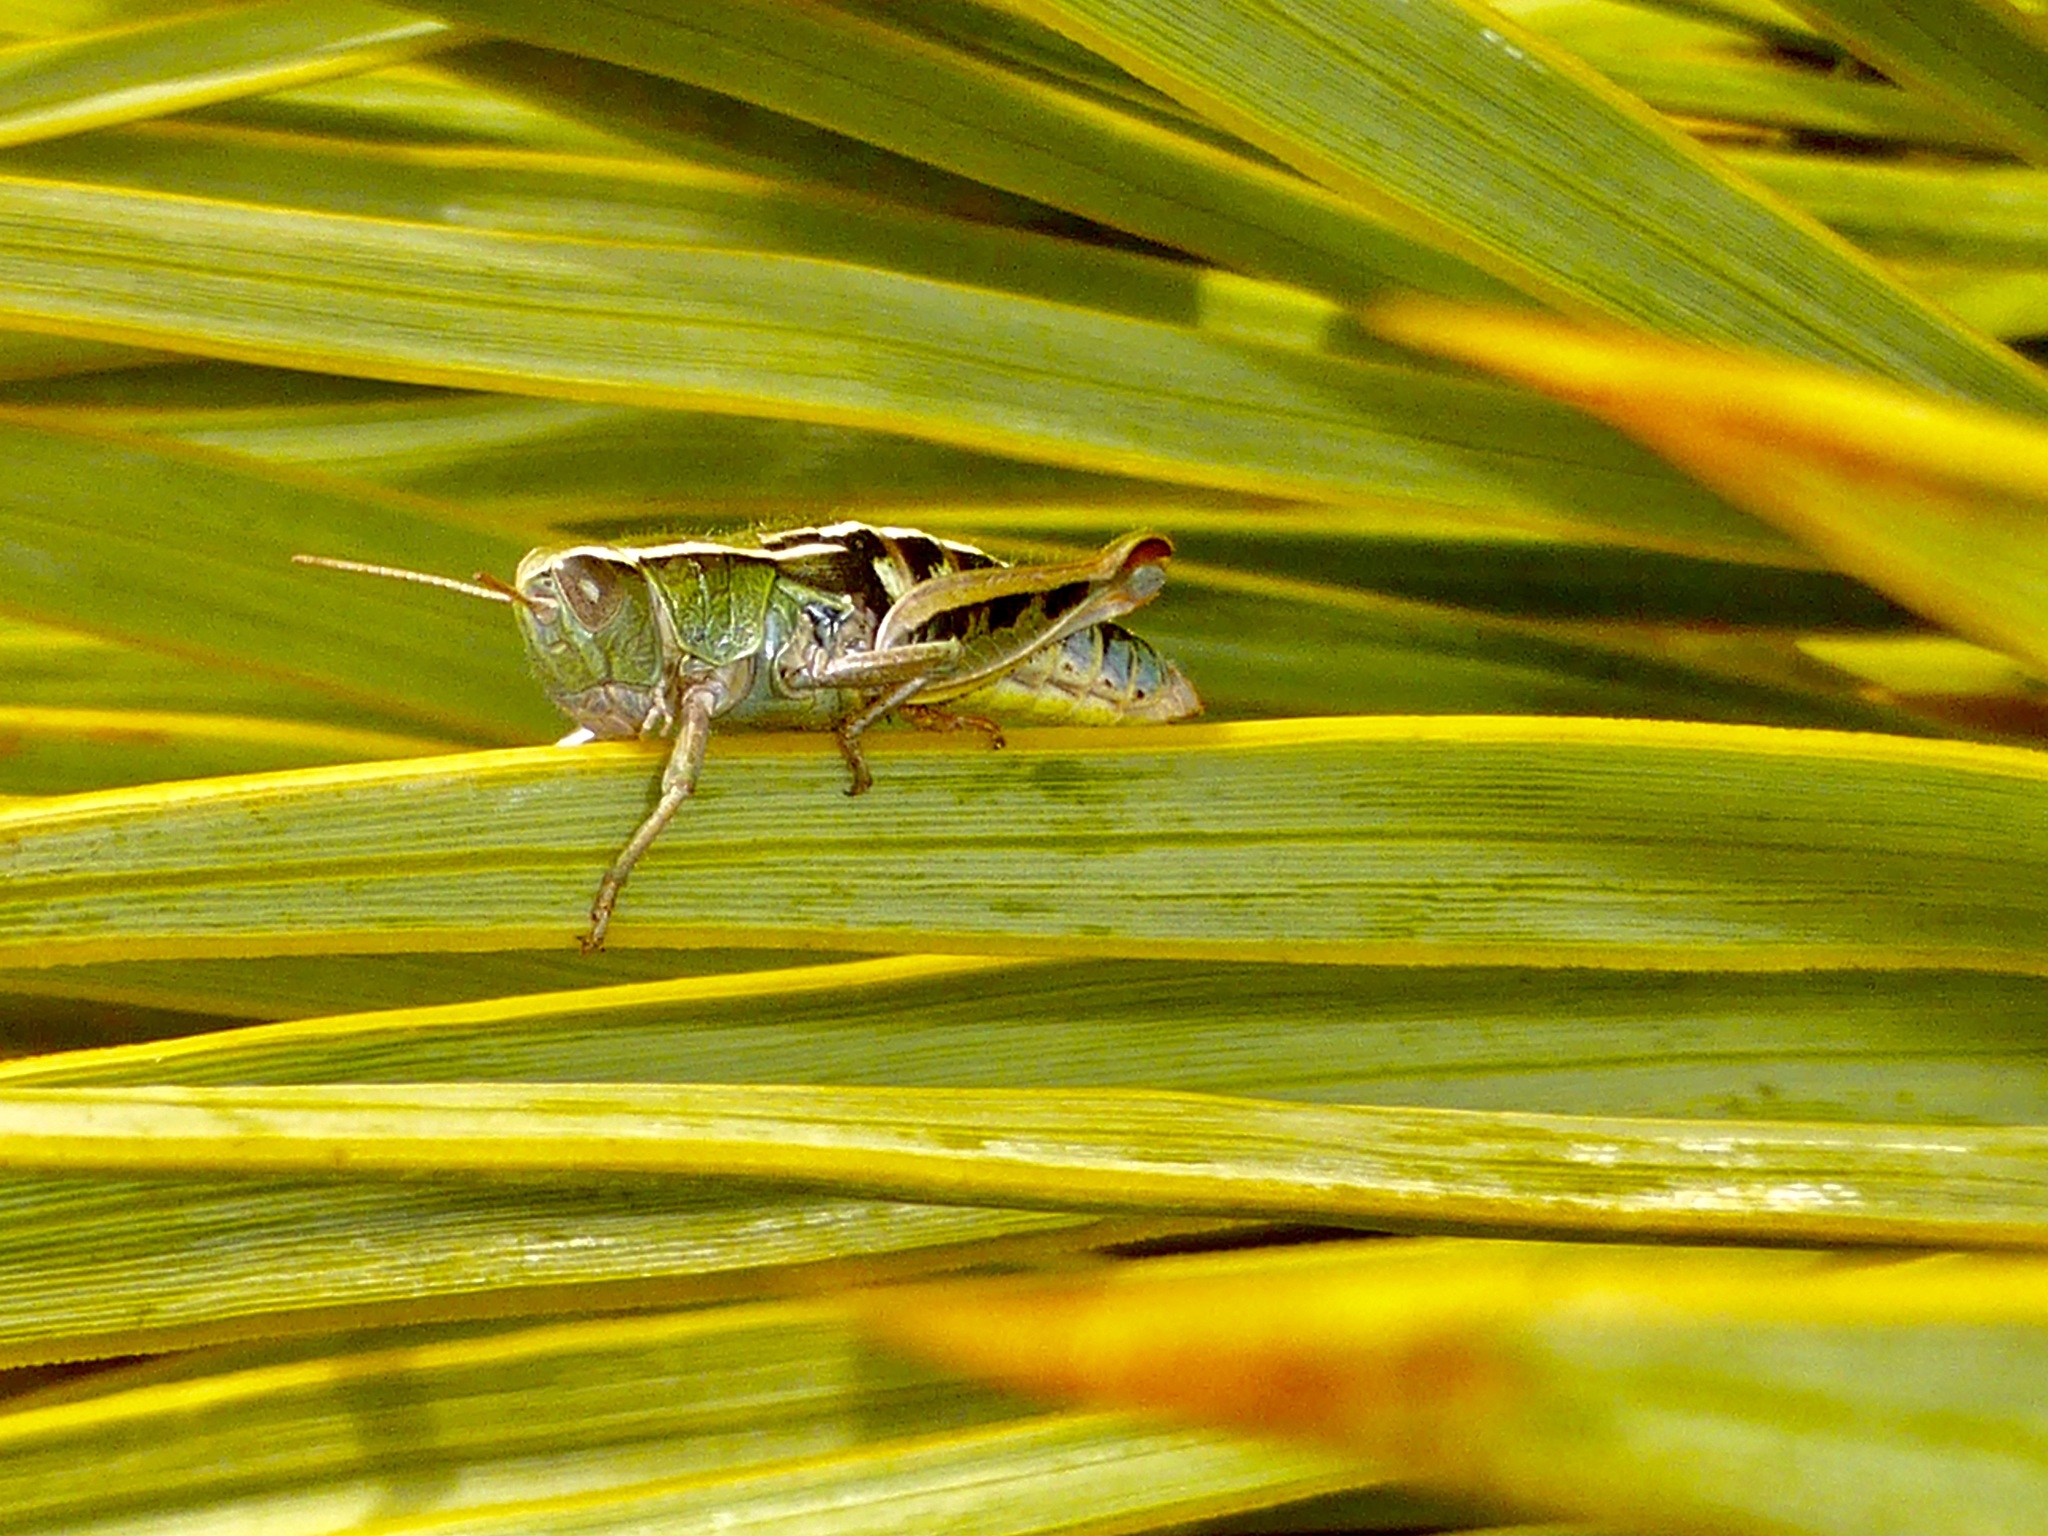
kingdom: Animalia
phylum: Arthropoda
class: Insecta
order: Orthoptera
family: Acrididae
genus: Sigaus
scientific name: Sigaus
